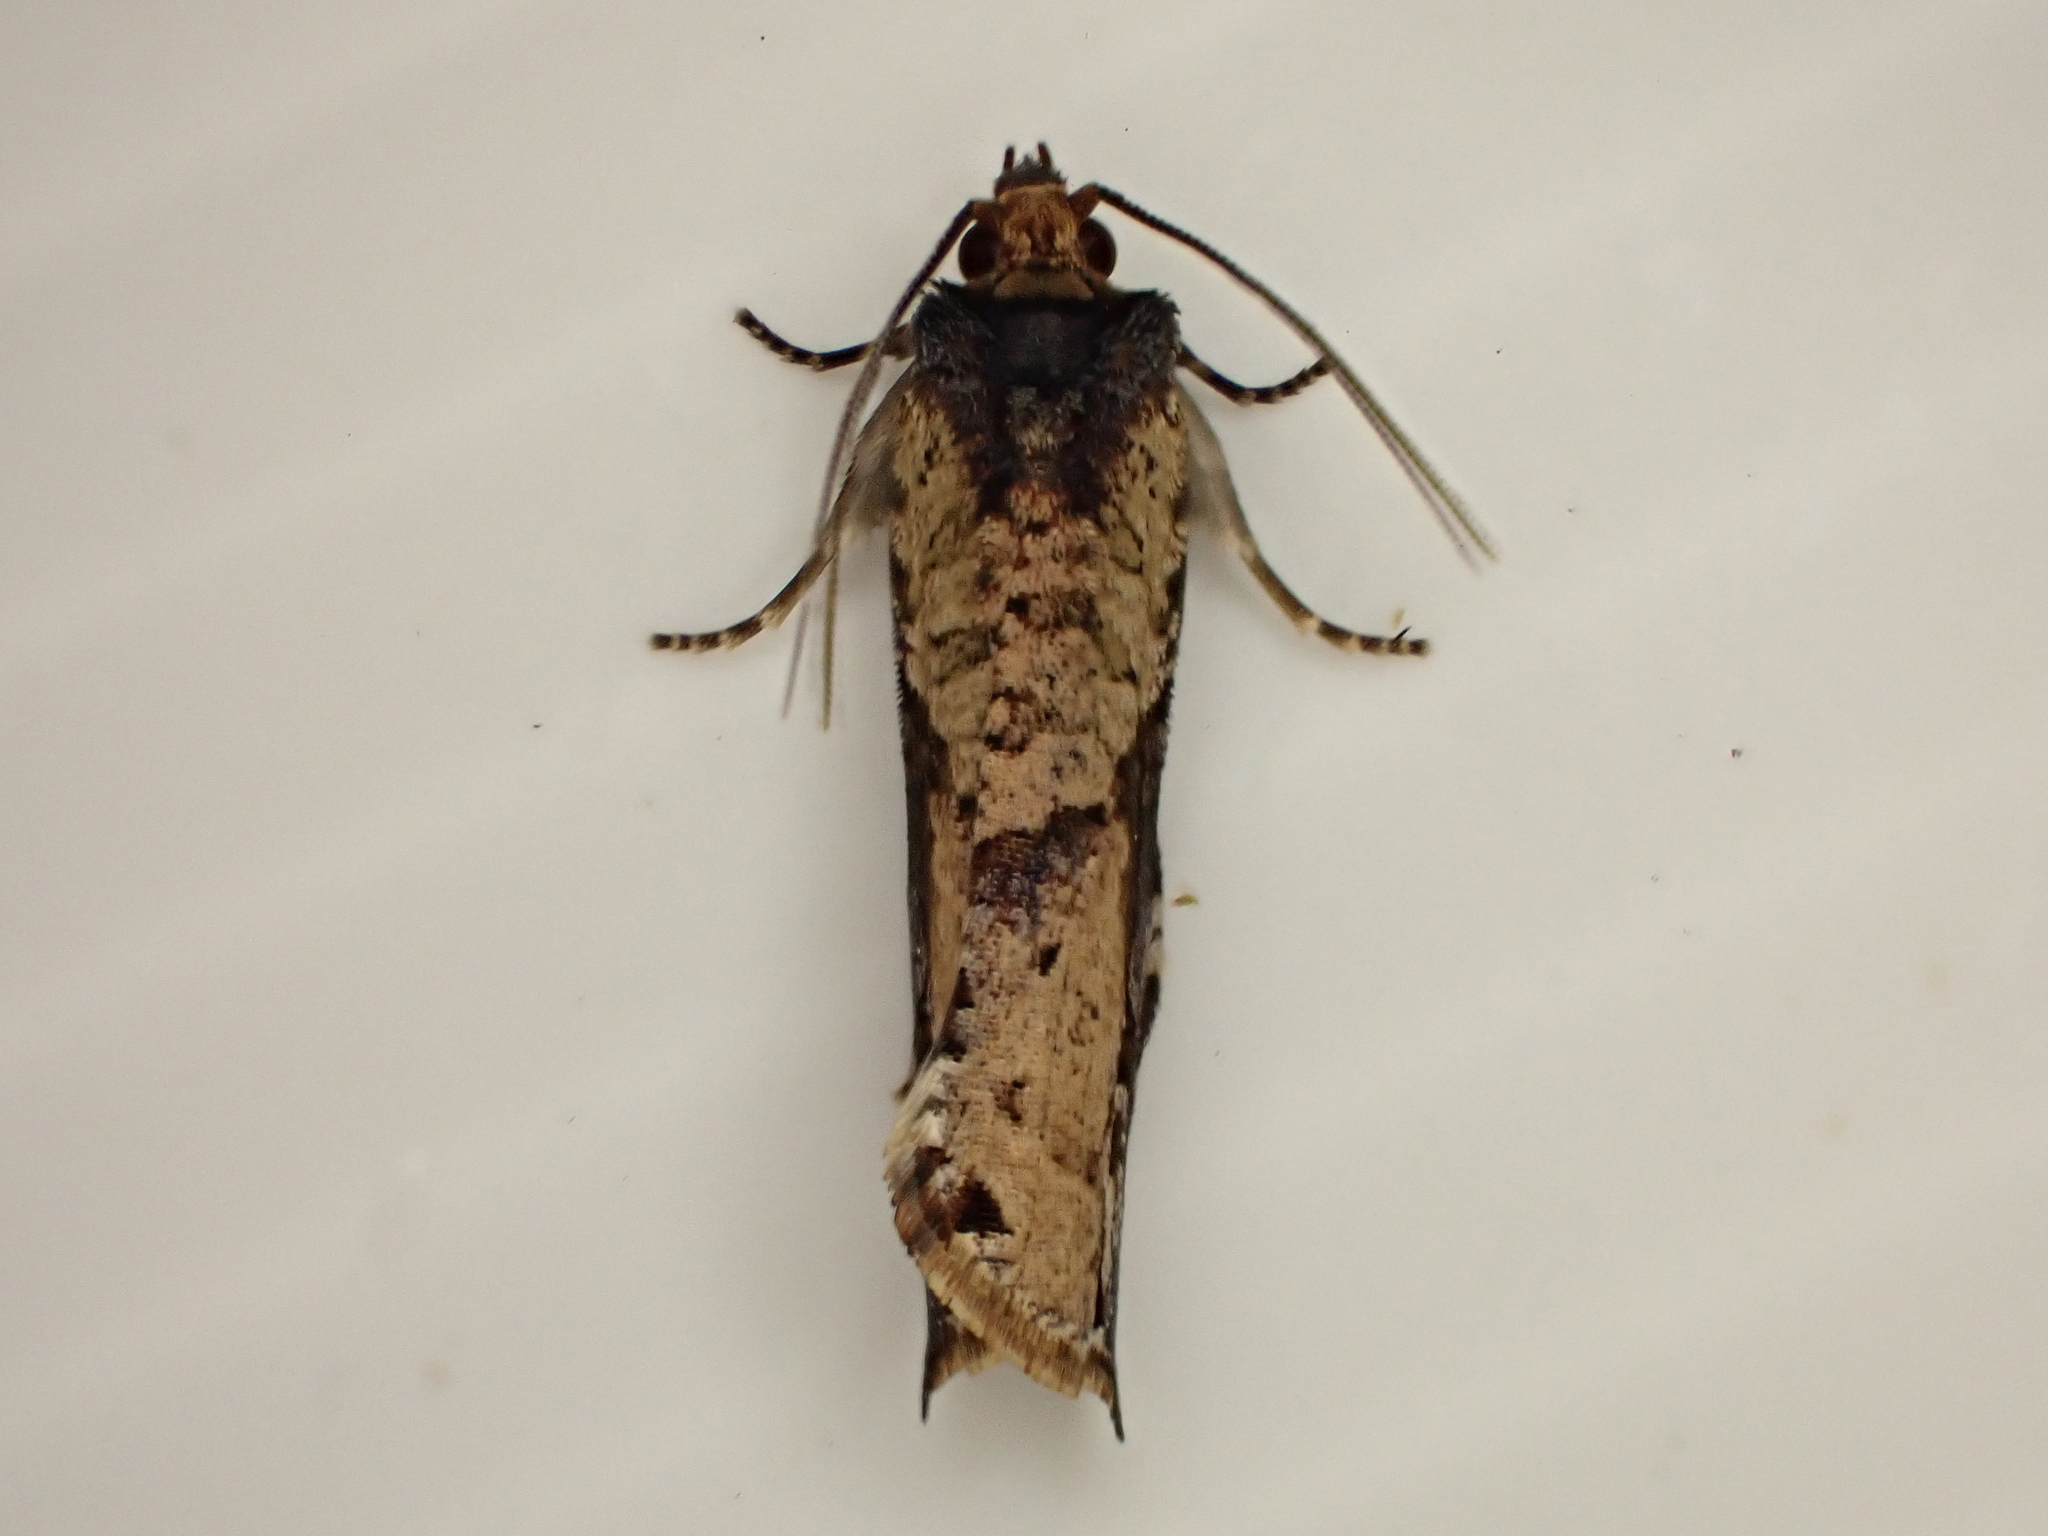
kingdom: Animalia
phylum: Arthropoda
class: Insecta
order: Lepidoptera
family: Tortricidae
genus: Epalxiphora
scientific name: Epalxiphora axenana
